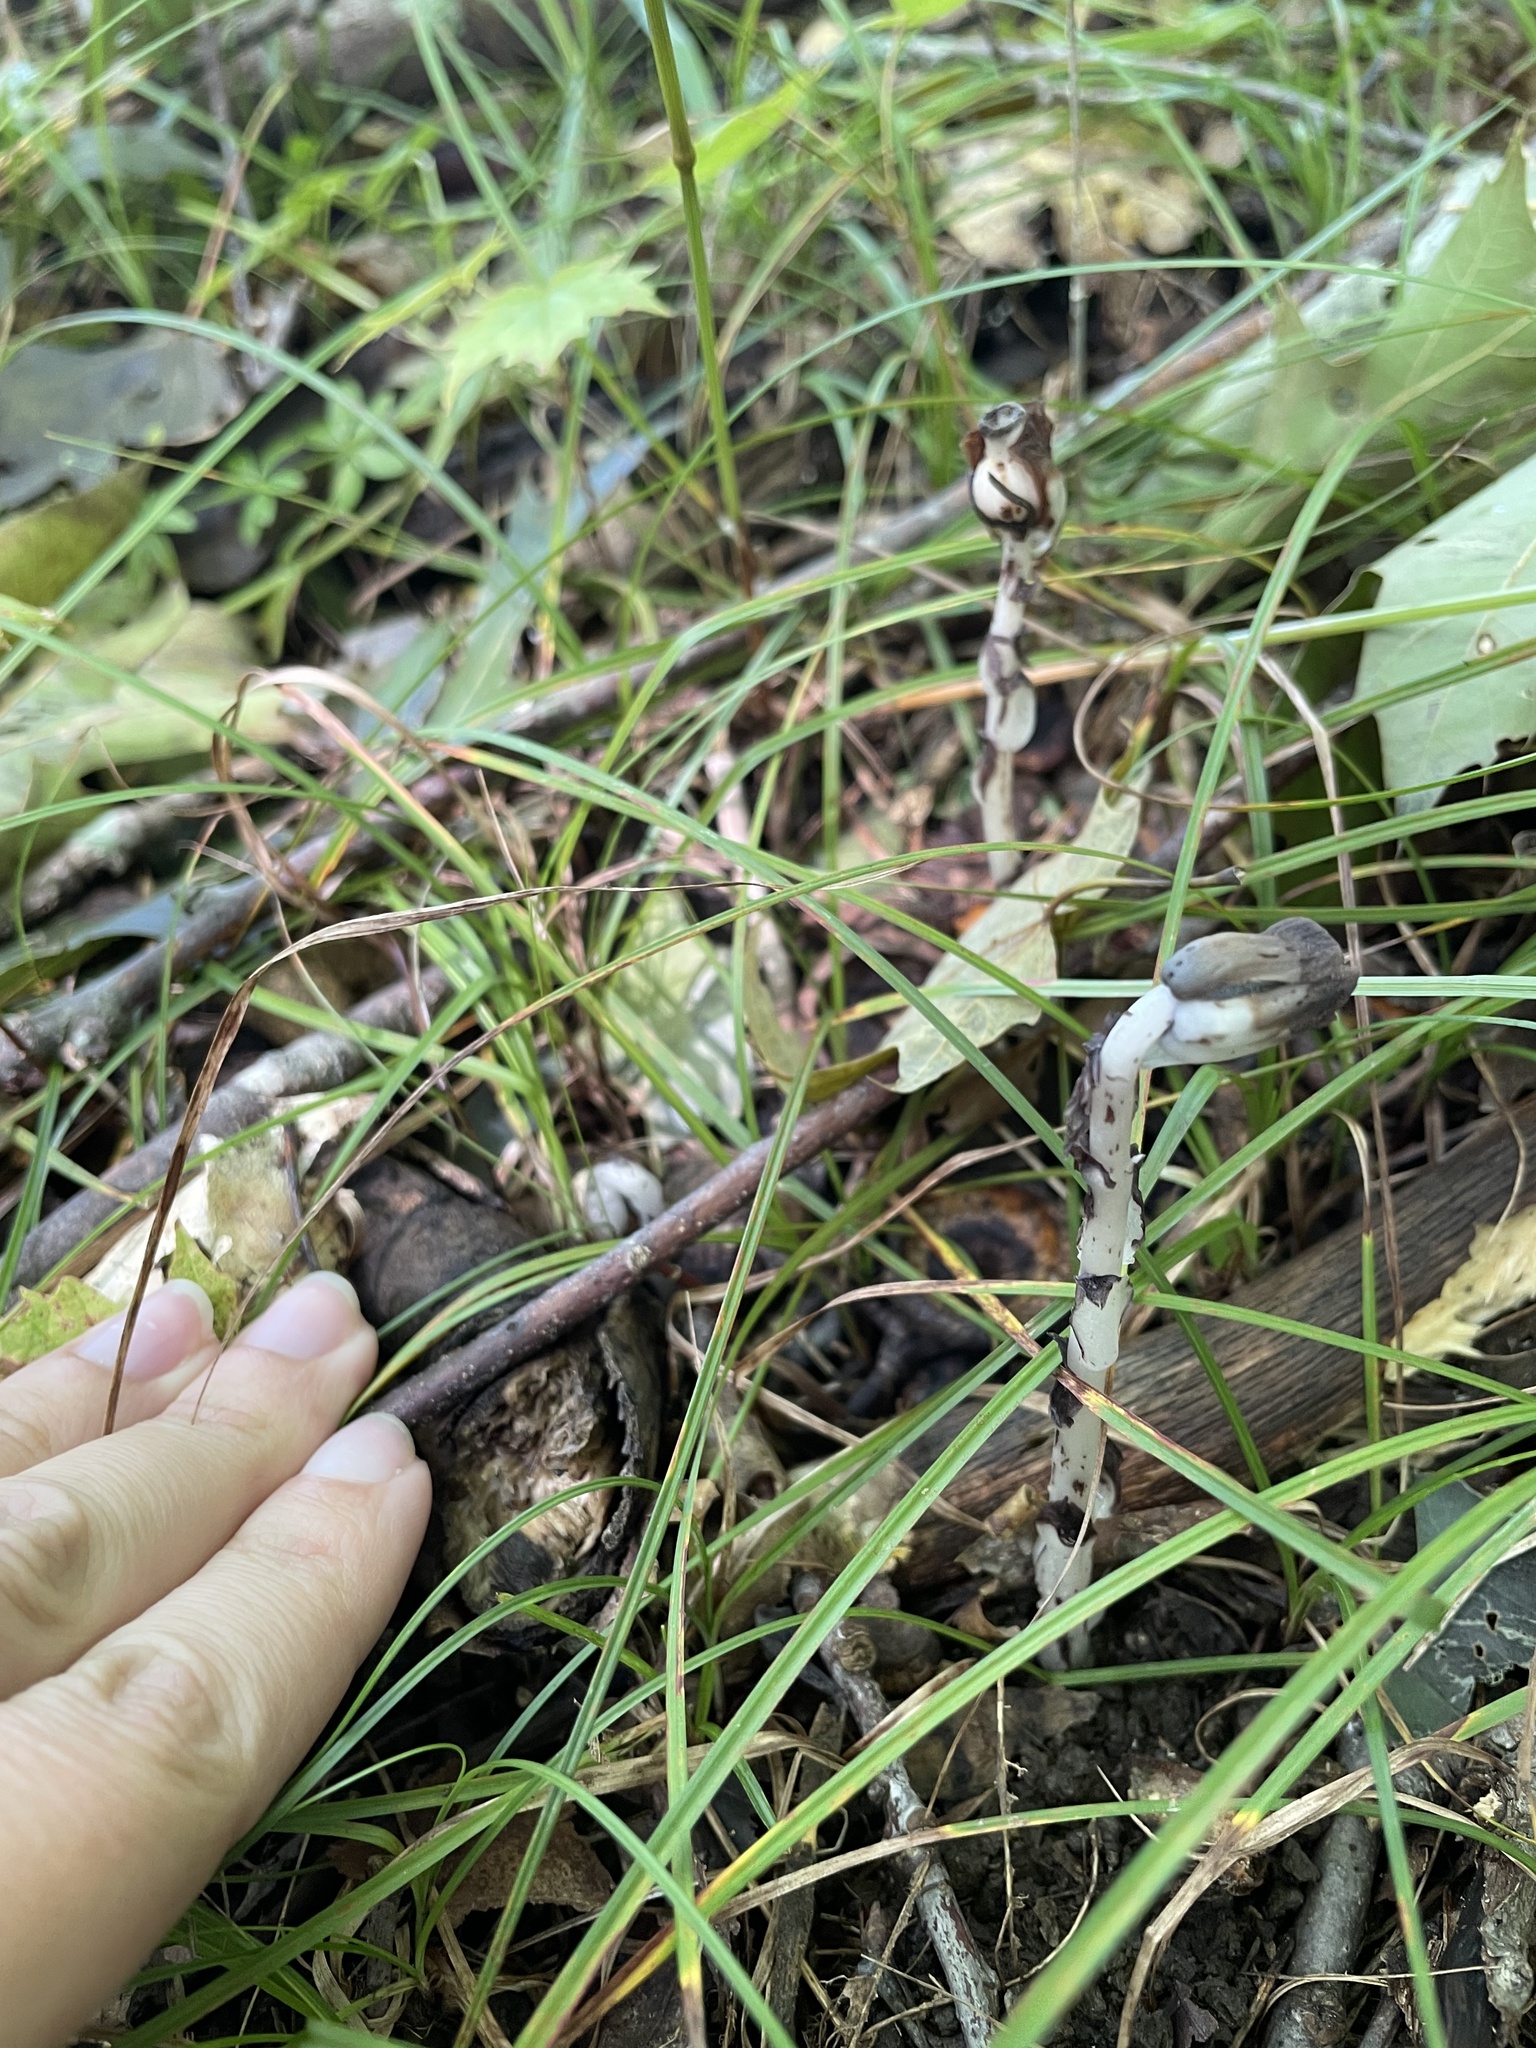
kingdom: Plantae
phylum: Tracheophyta
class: Magnoliopsida
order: Ericales
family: Ericaceae
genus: Monotropa
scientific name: Monotropa uniflora
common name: Convulsion root
